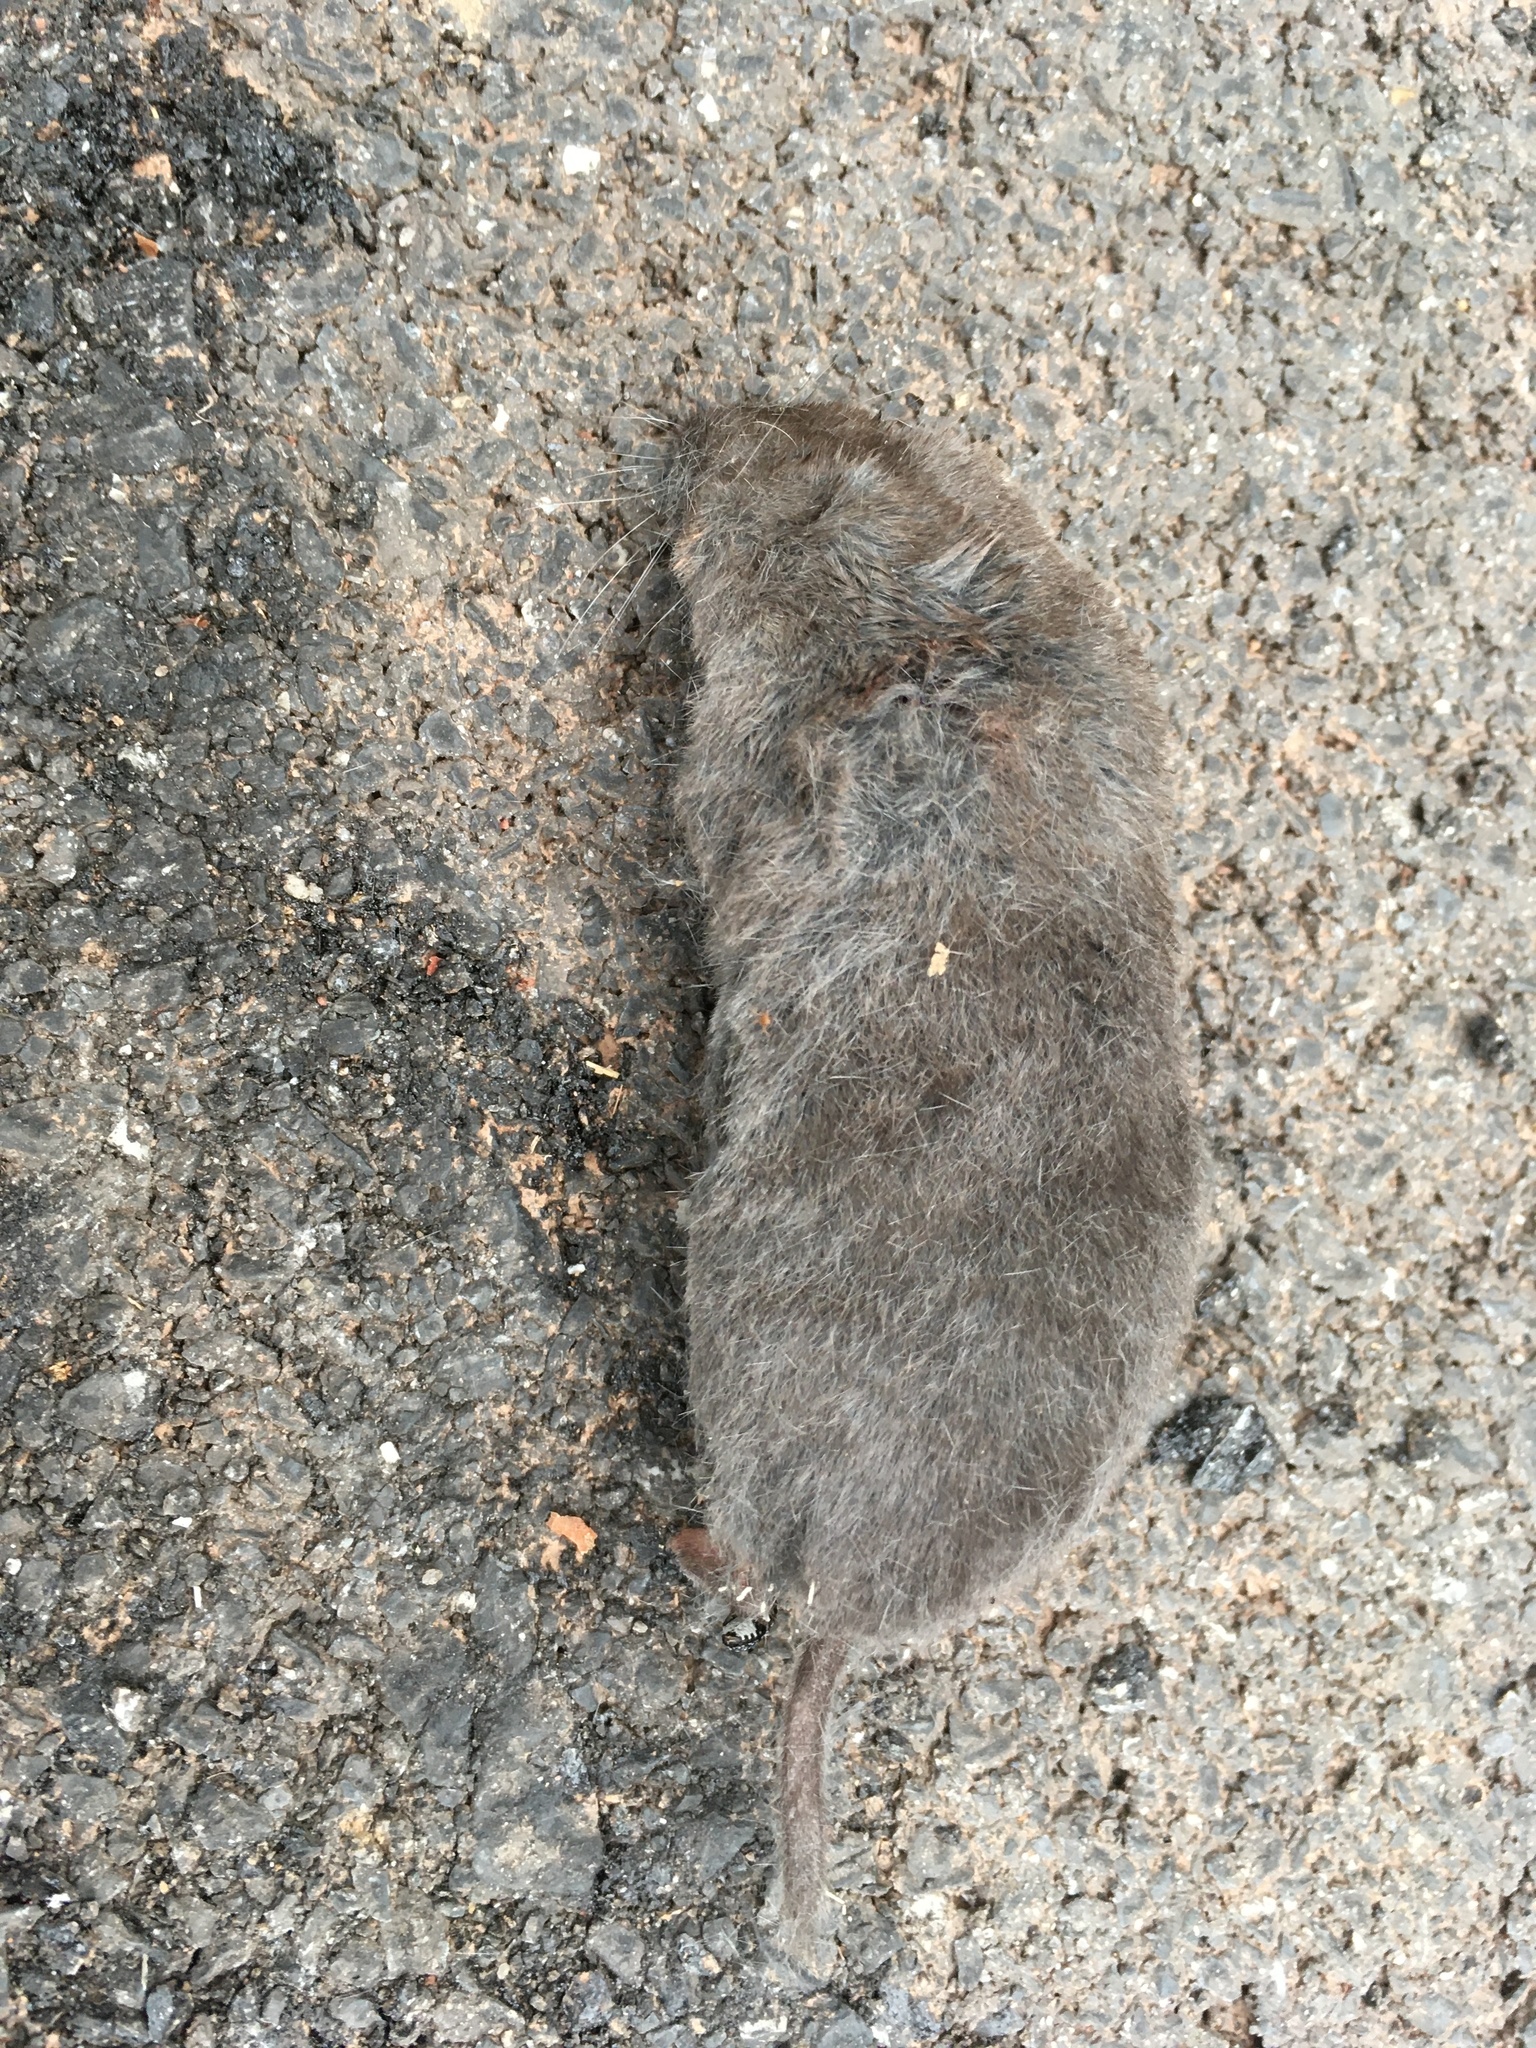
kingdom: Animalia
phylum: Chordata
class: Mammalia
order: Soricomorpha
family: Soricidae
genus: Blarina
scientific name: Blarina brevicauda
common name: Northern short-tailed shrew
